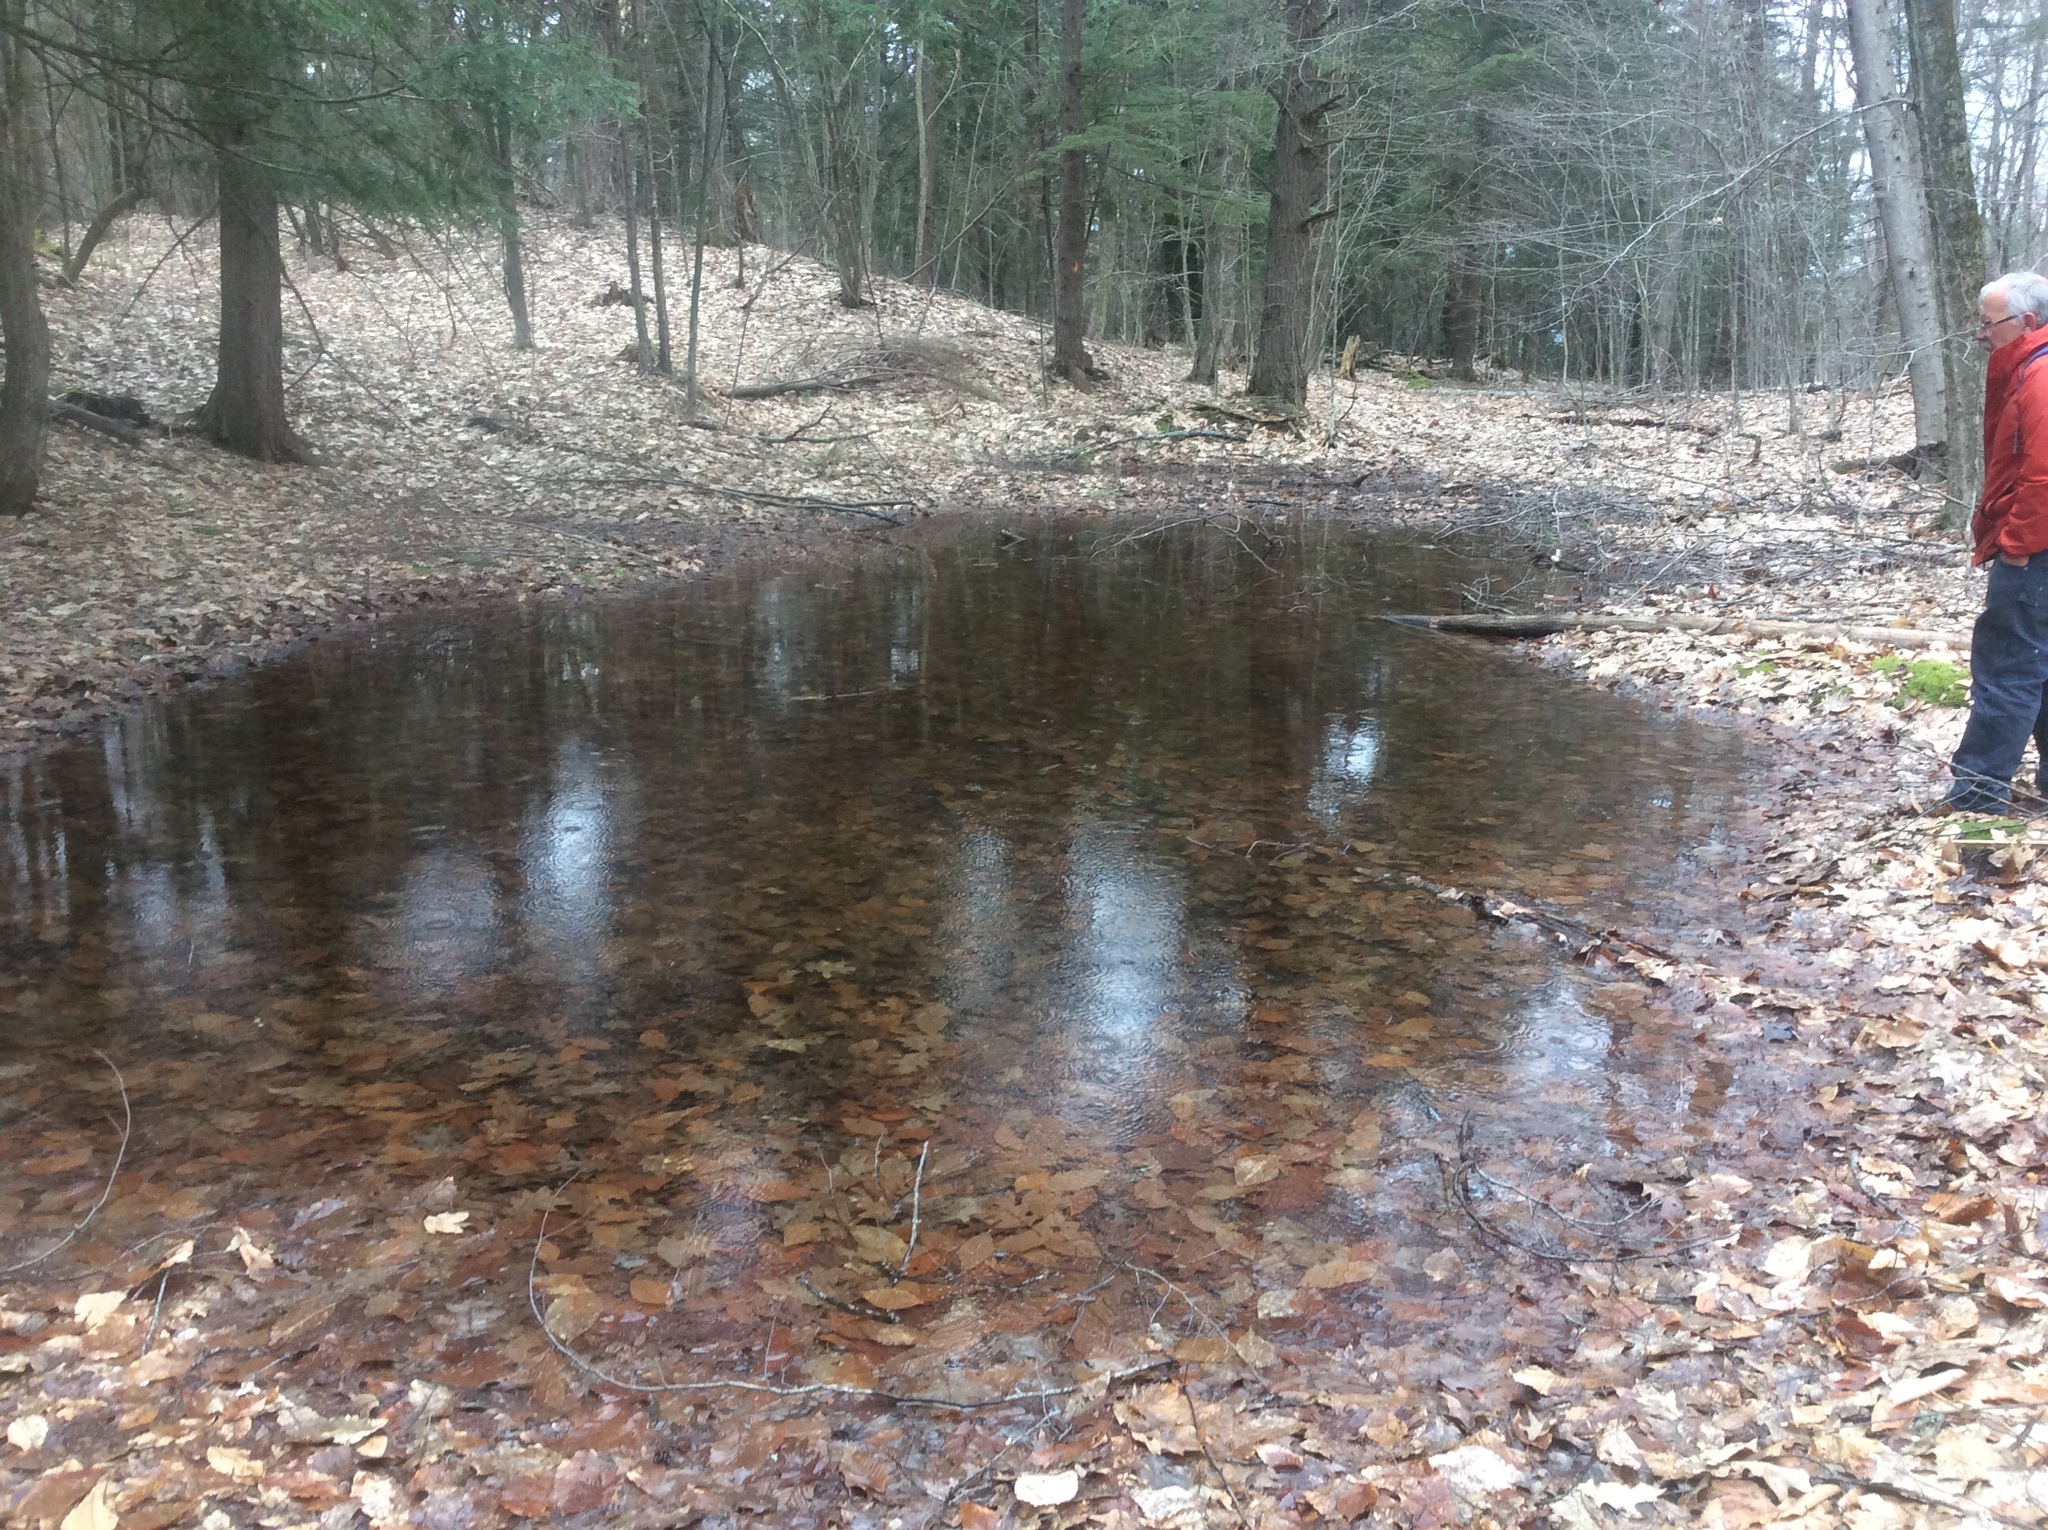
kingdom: Plantae
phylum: Tracheophyta
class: Pinopsida
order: Pinales
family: Pinaceae
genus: Tsuga
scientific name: Tsuga canadensis
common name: Eastern hemlock
